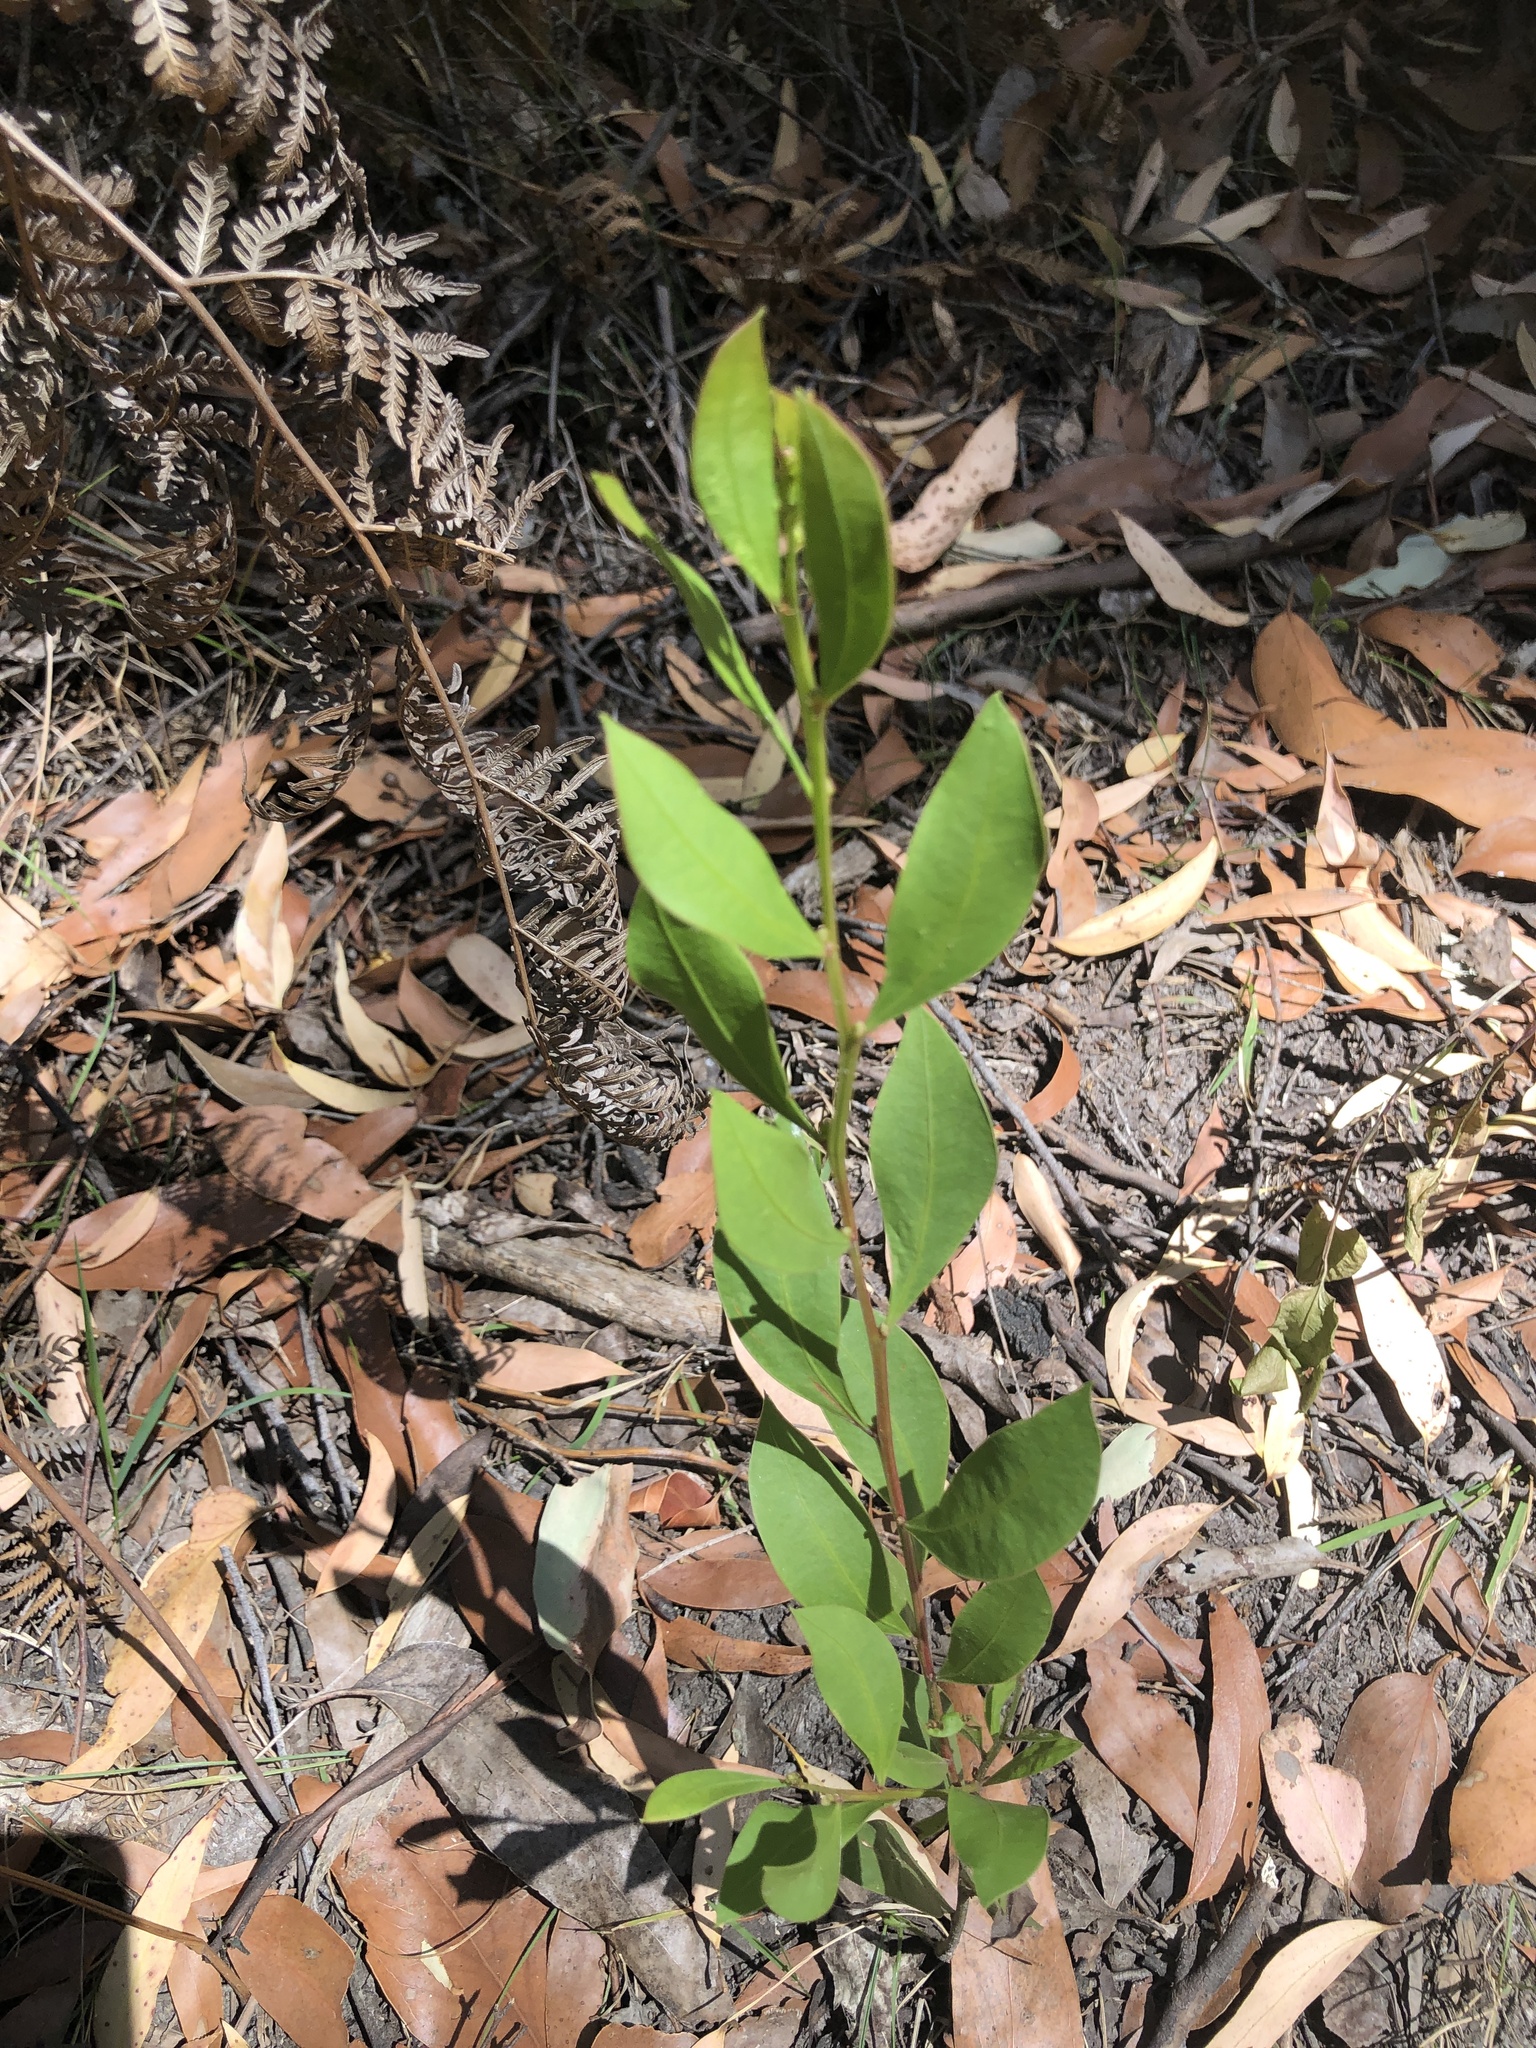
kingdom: Plantae
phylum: Tracheophyta
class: Magnoliopsida
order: Fabales
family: Fabaceae
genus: Acacia
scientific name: Acacia myrtifolia
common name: Myrtle wattle
